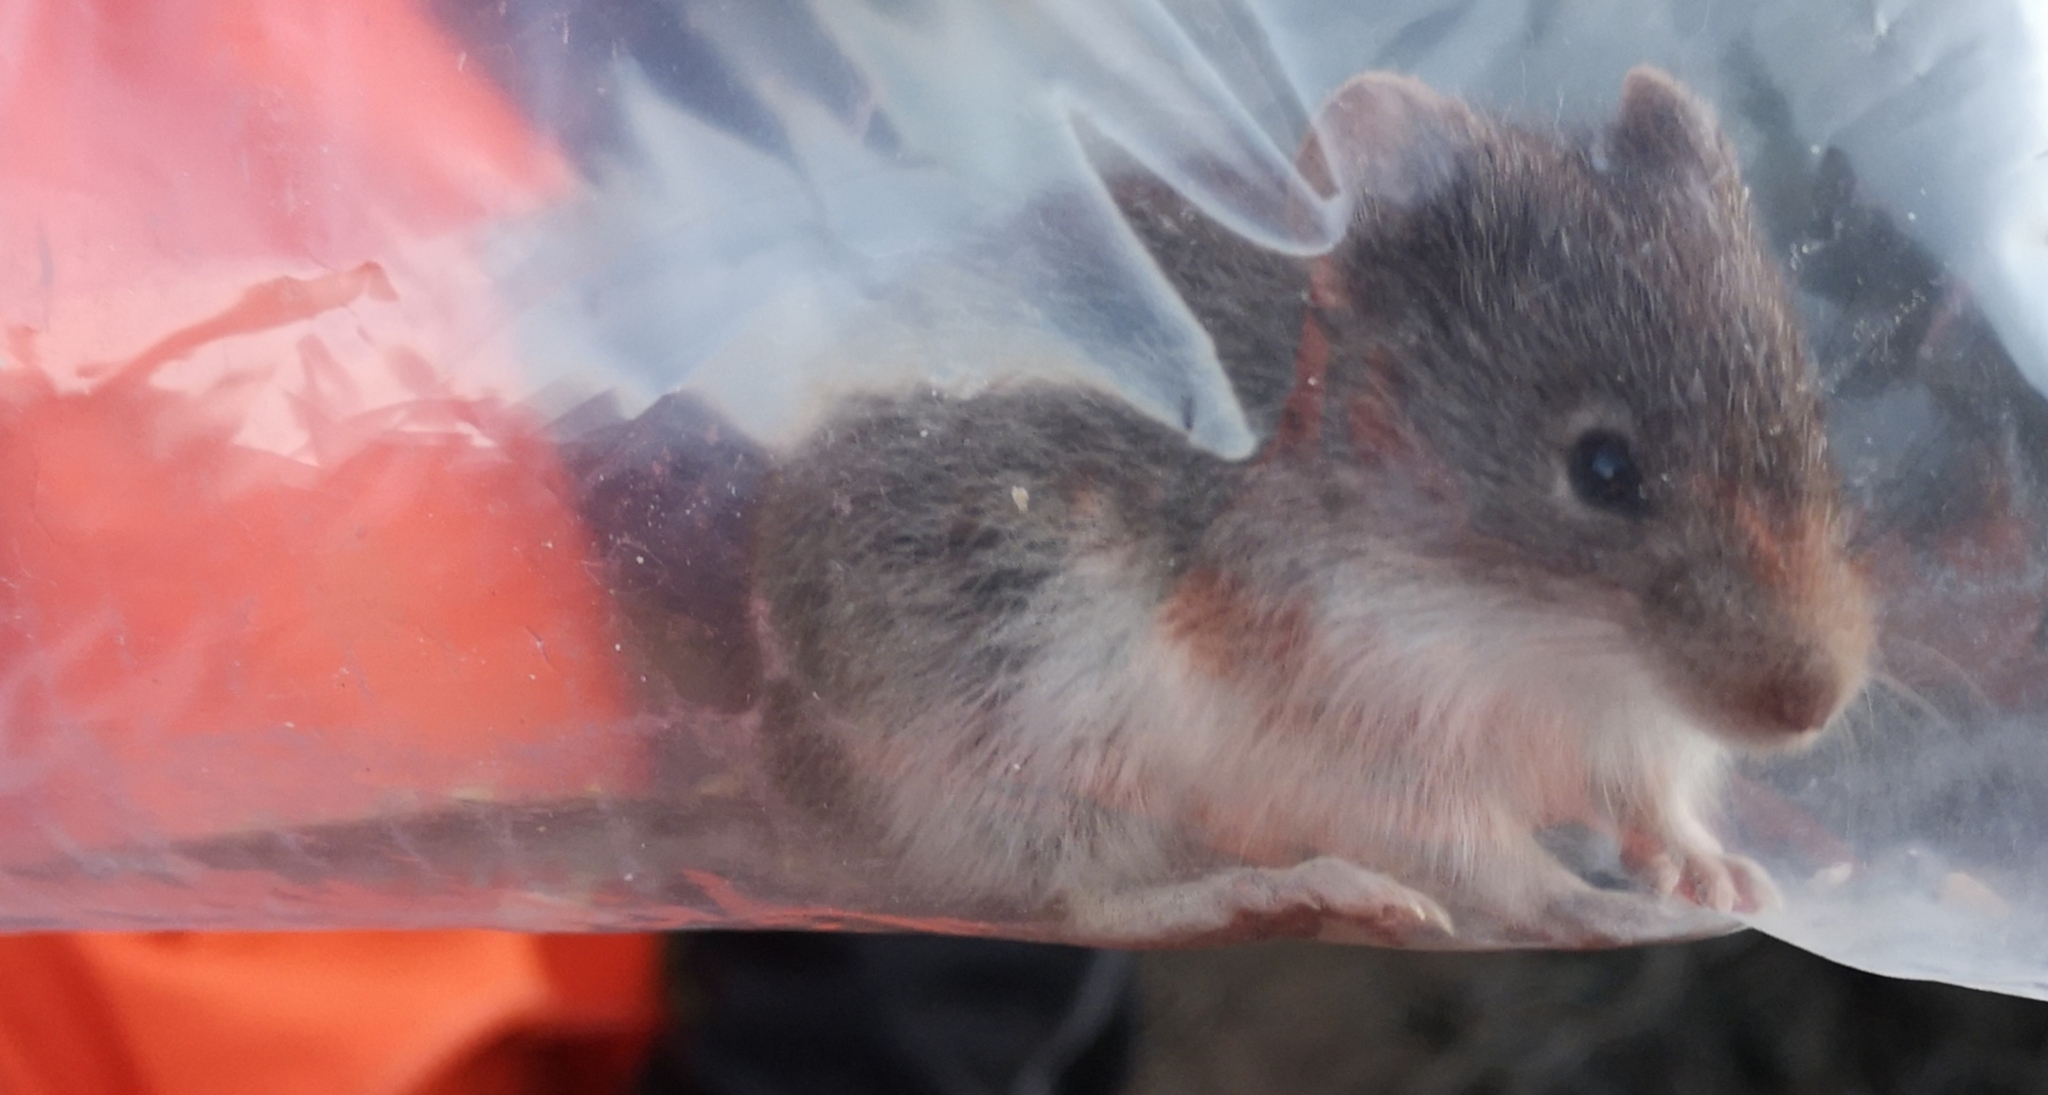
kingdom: Animalia
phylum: Chordata
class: Mammalia
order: Rodentia
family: Cricetidae
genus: Akodon
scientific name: Akodon albiventer
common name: White-bellied akodont
